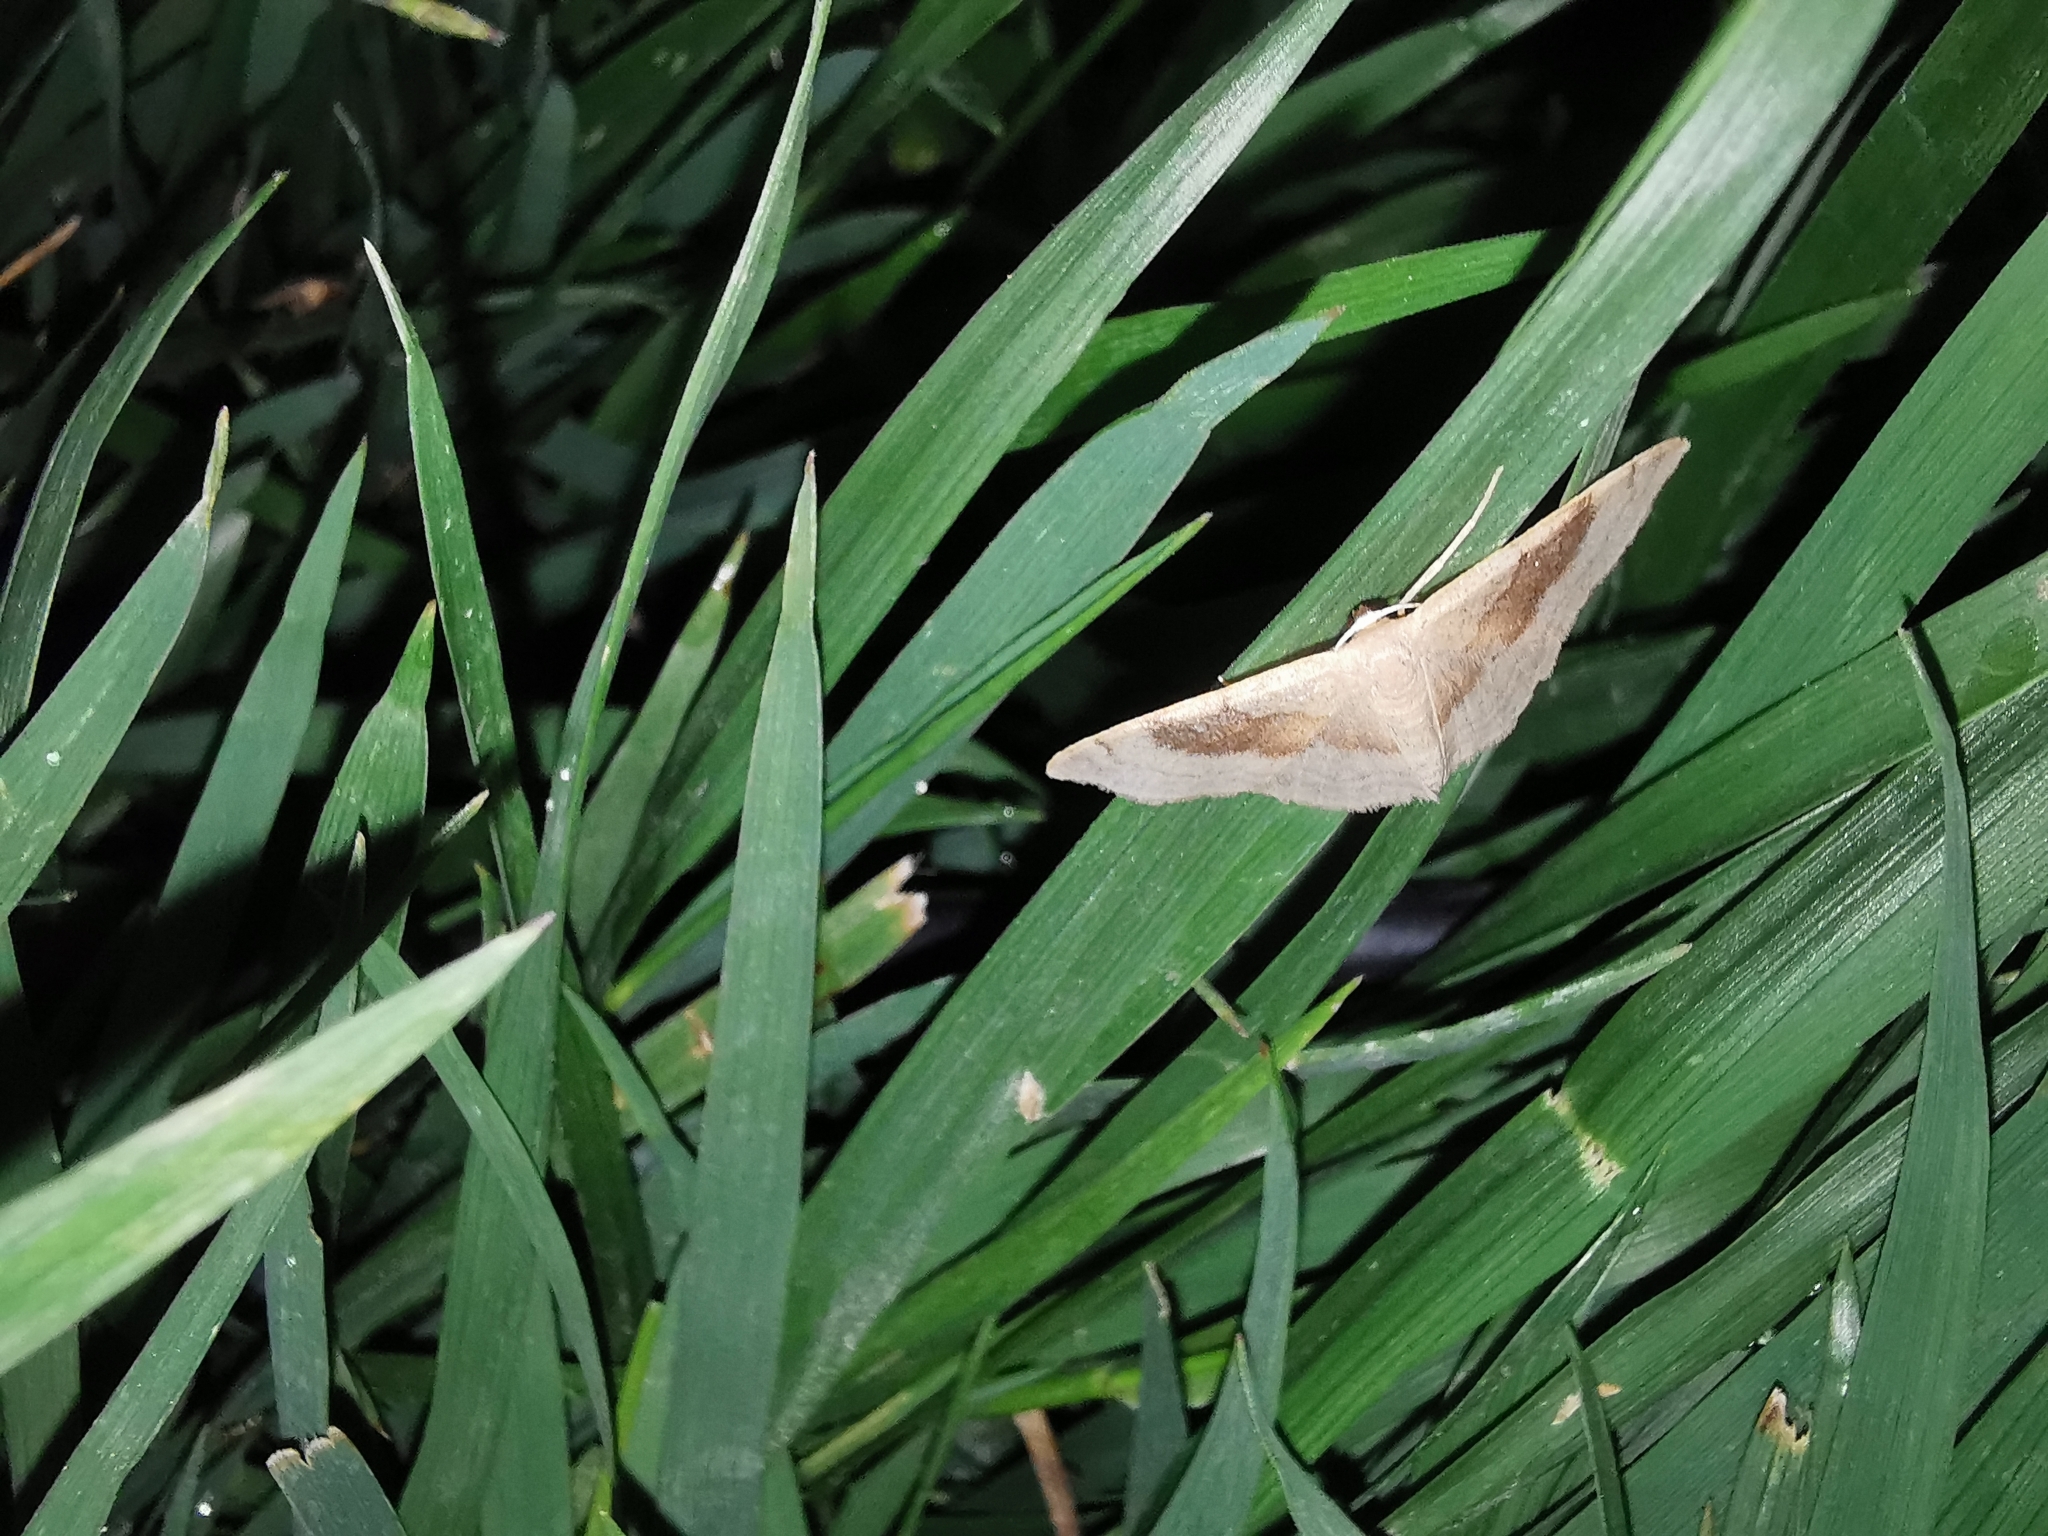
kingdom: Animalia
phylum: Arthropoda
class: Insecta
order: Lepidoptera
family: Geometridae
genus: Idaea
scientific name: Idaea degeneraria
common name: Portland ribbon wave
